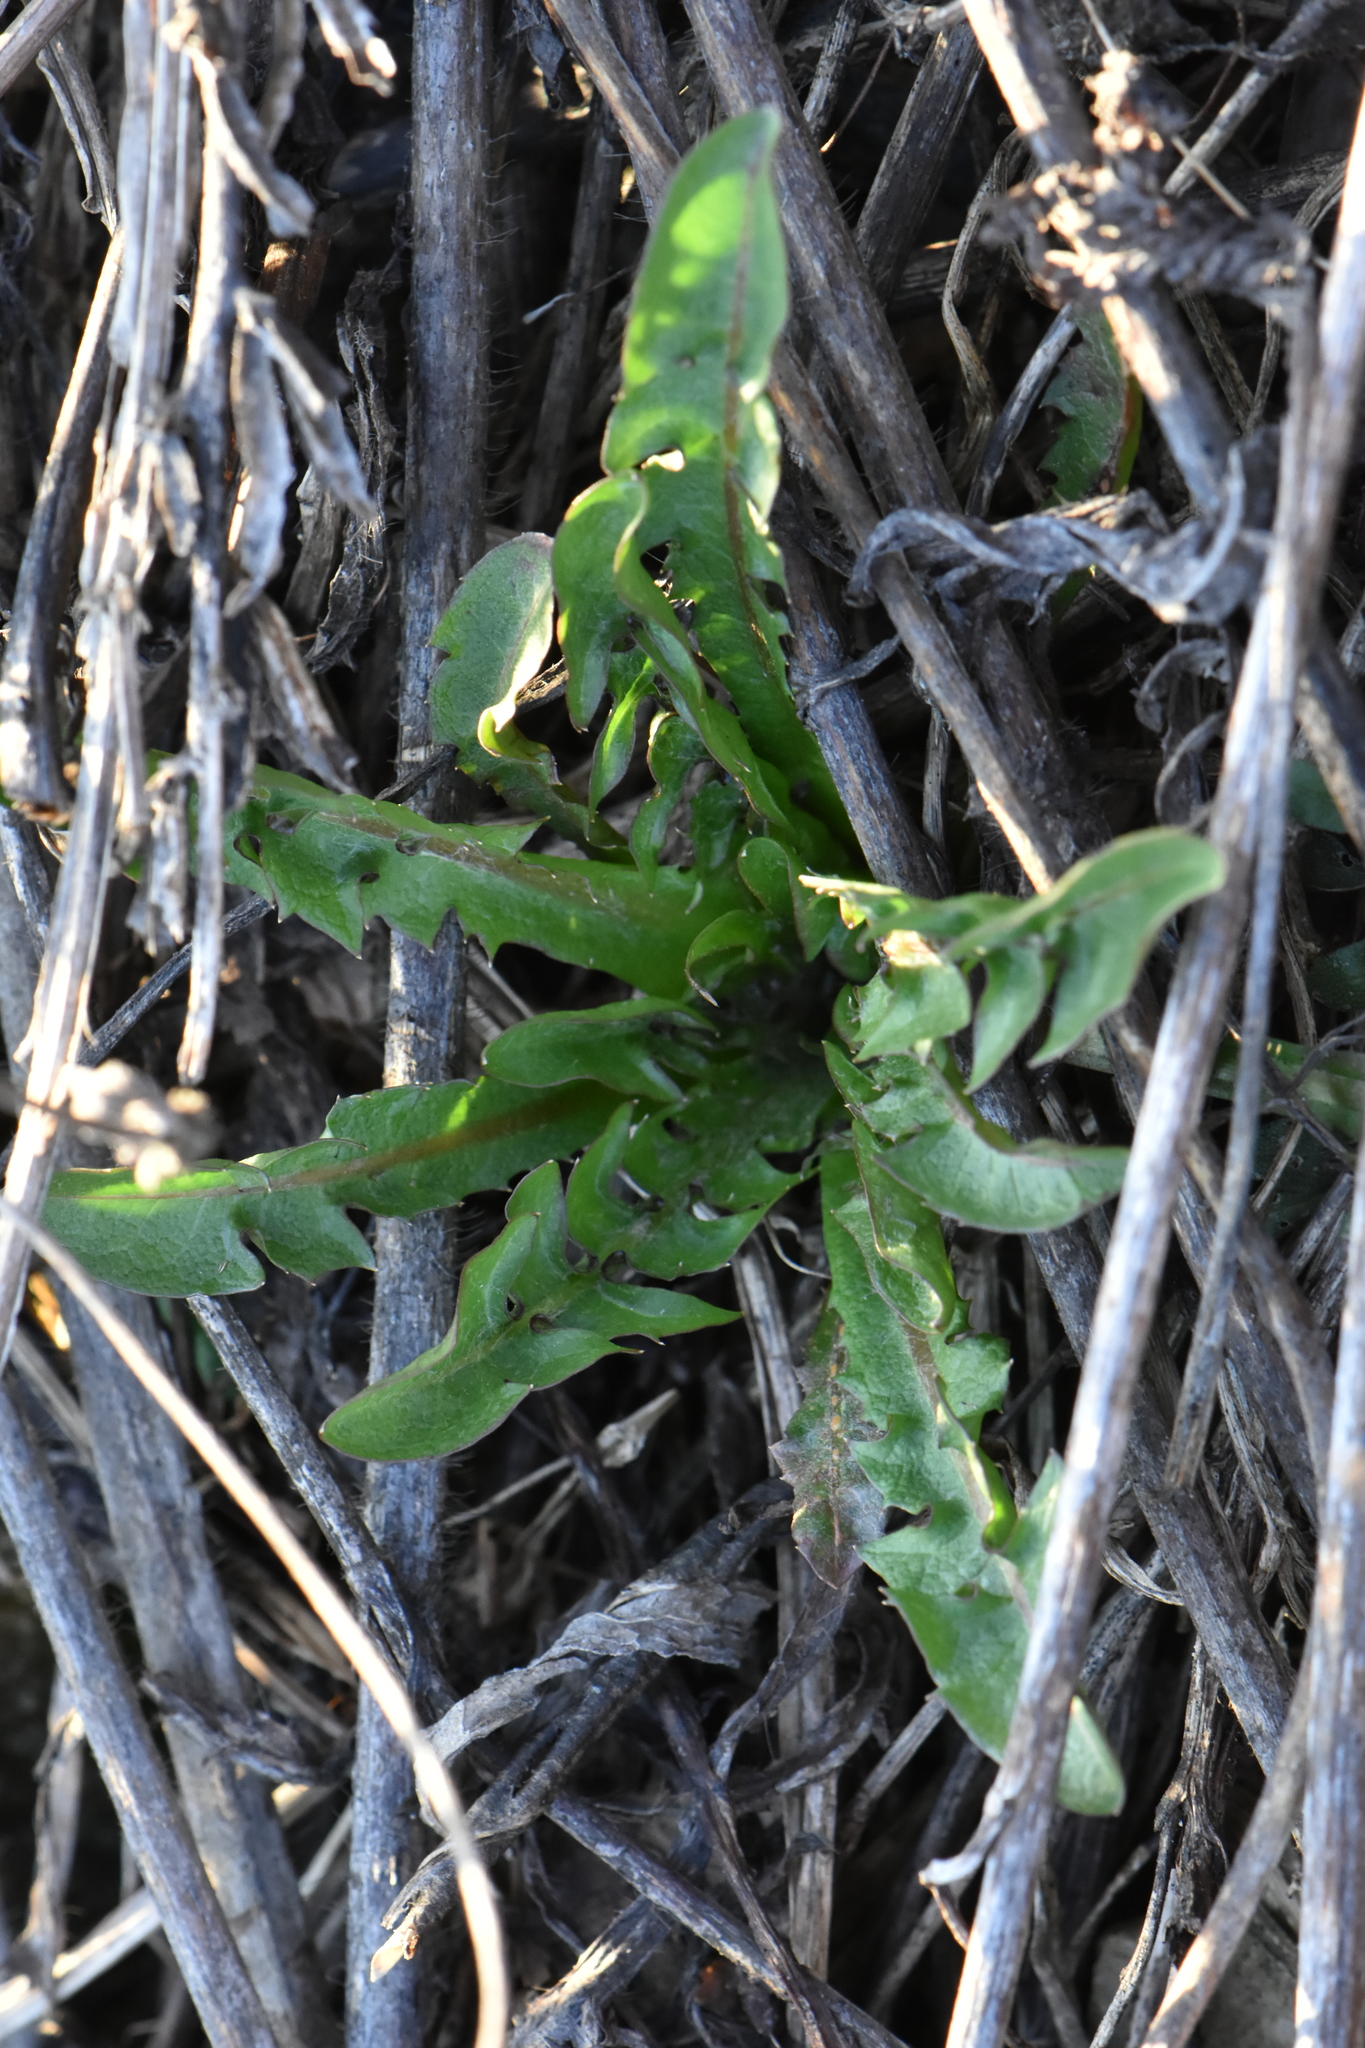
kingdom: Plantae
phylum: Tracheophyta
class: Magnoliopsida
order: Asterales
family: Asteraceae
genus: Taraxacum
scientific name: Taraxacum officinale
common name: Common dandelion
